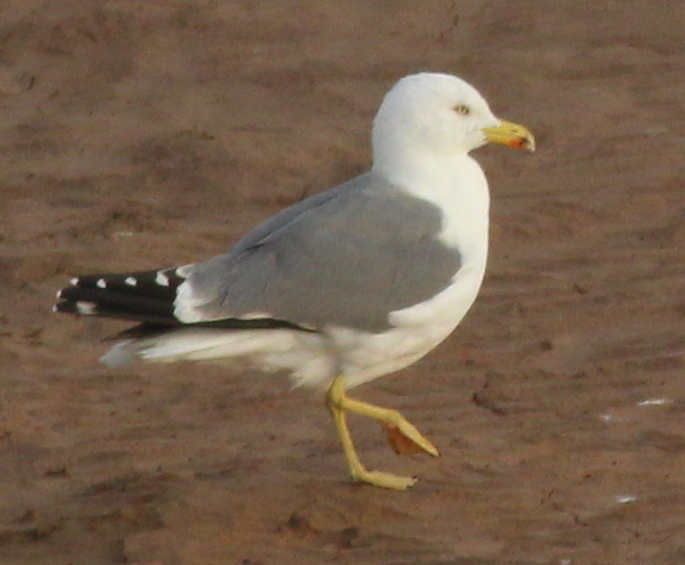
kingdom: Animalia
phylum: Chordata
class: Aves
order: Charadriiformes
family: Laridae
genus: Larus
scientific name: Larus michahellis
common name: Yellow-legged gull
